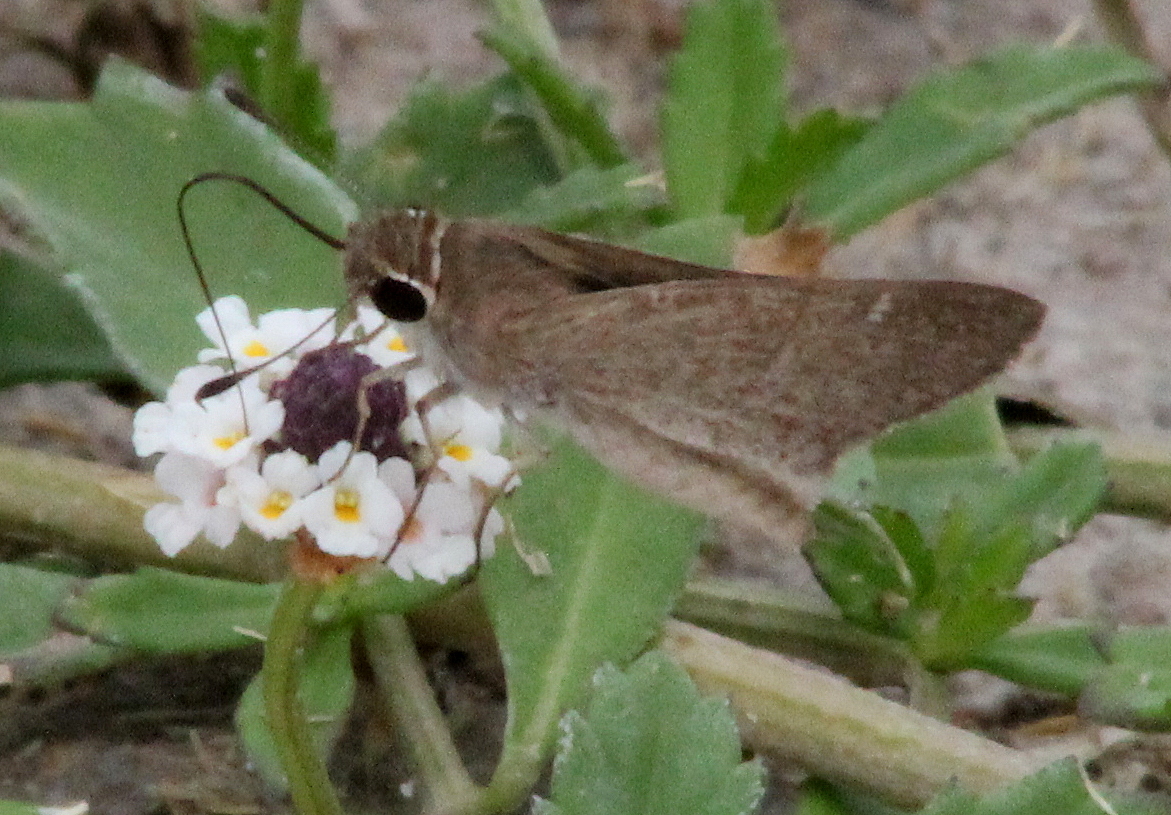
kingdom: Animalia
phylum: Arthropoda
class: Insecta
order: Lepidoptera
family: Hesperiidae
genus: Lerodea
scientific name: Lerodea eufala
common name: Eufala skipper
